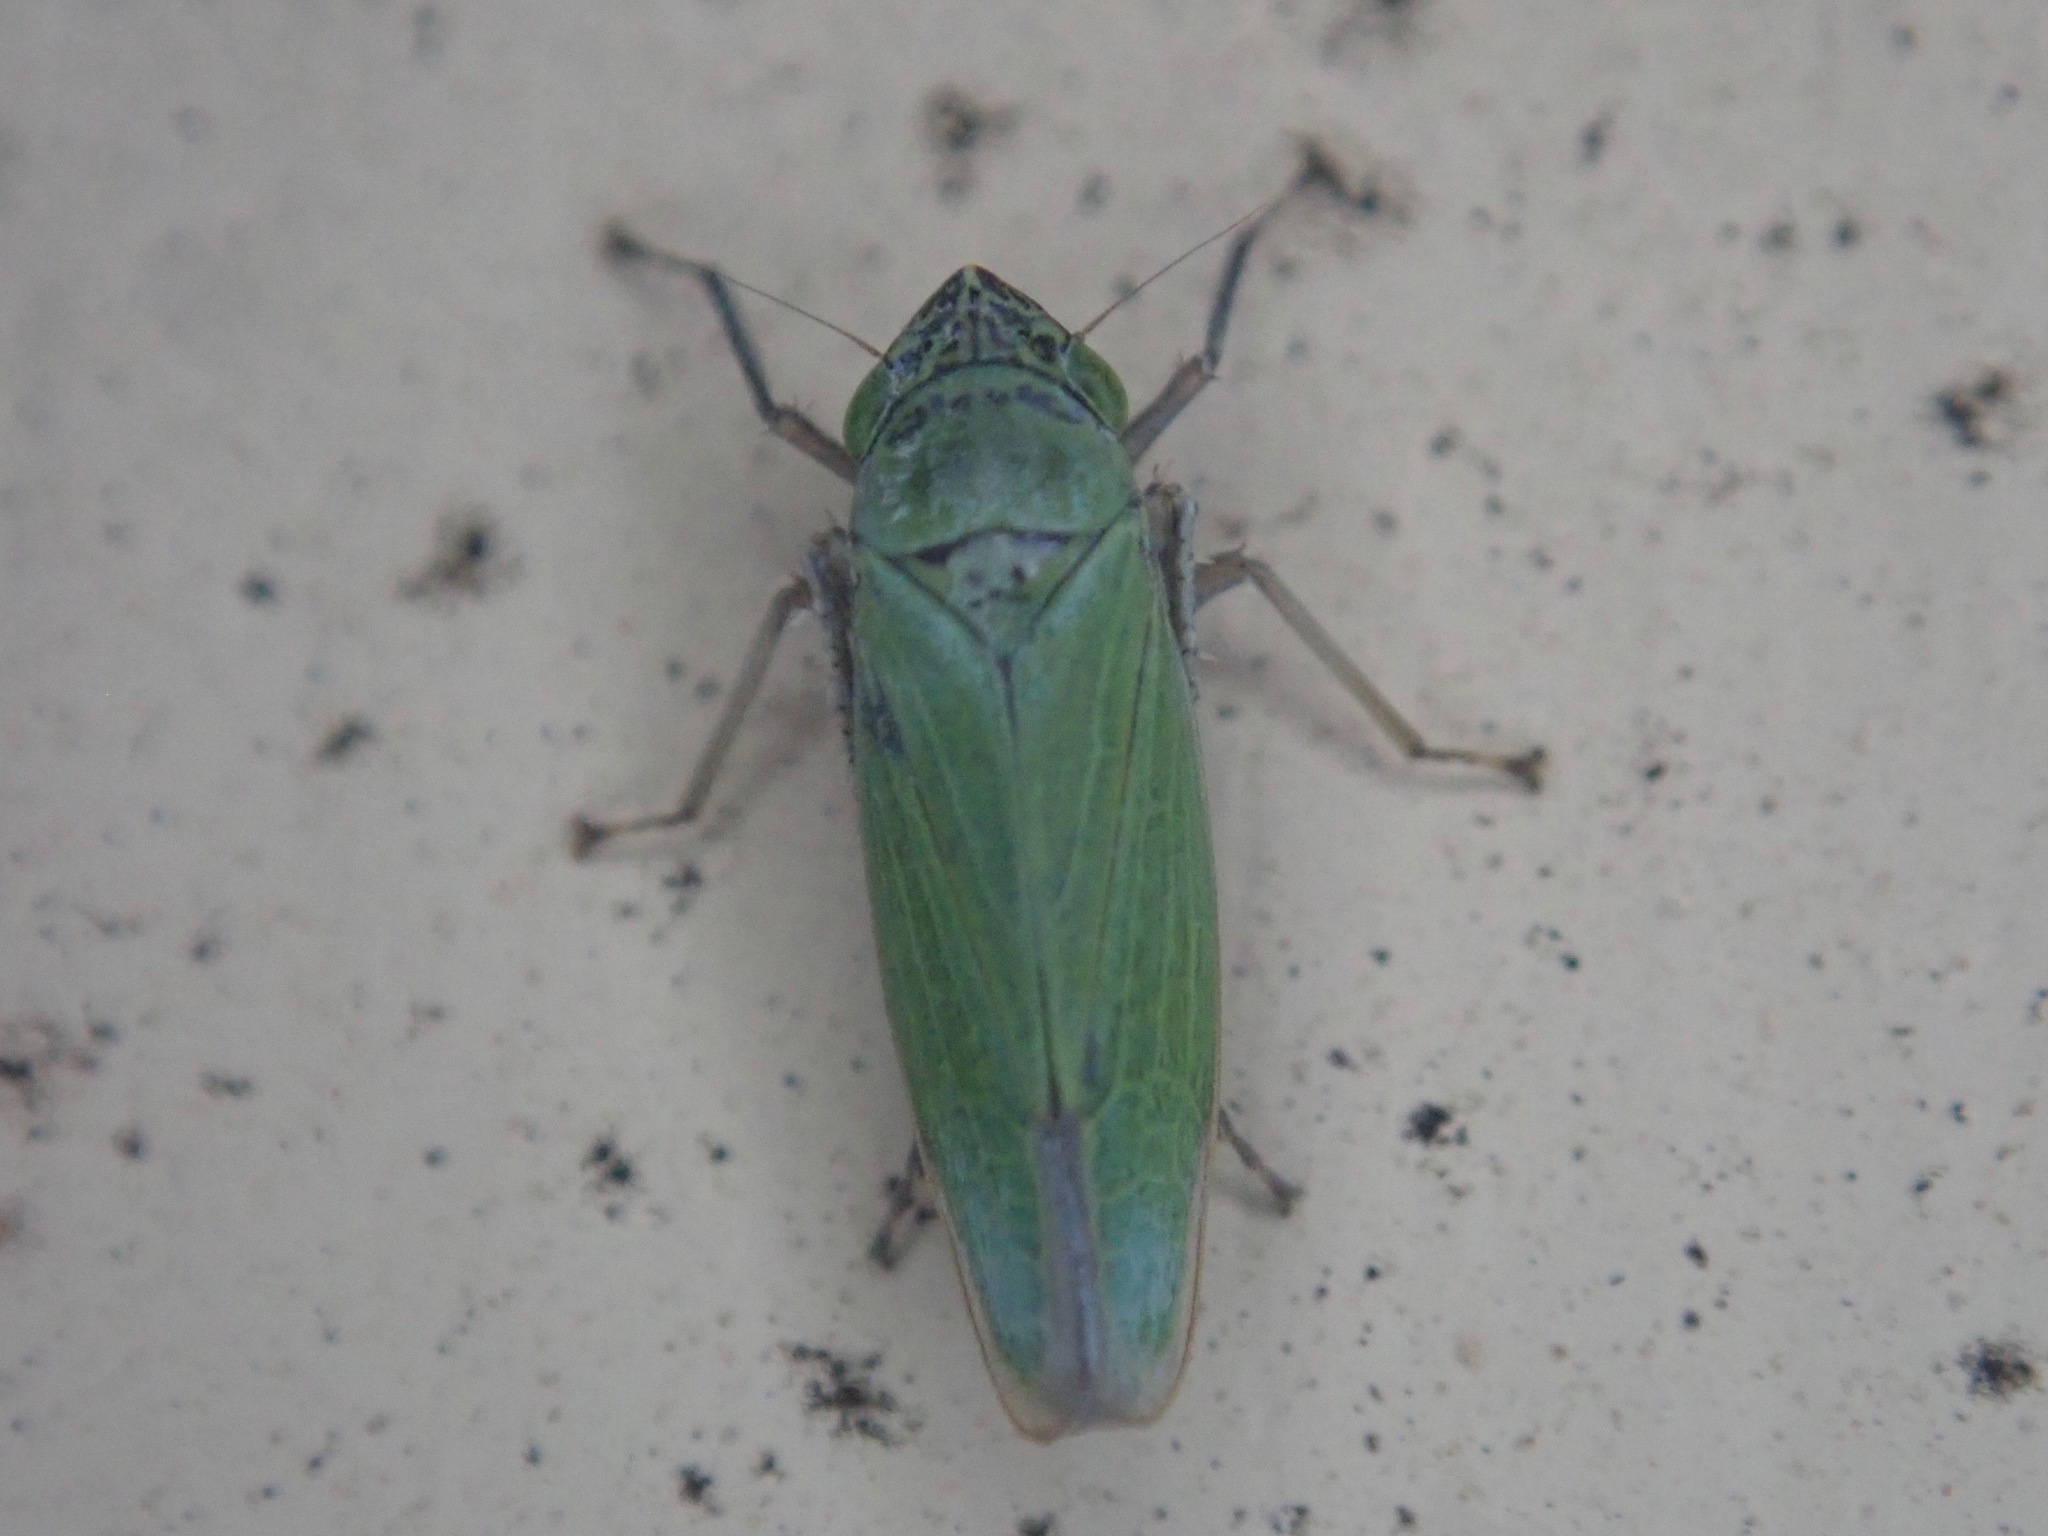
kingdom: Animalia
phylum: Arthropoda
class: Insecta
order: Hemiptera
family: Cicadellidae
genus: Draeculacephala
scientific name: Draeculacephala inscripta
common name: Leafhopper
